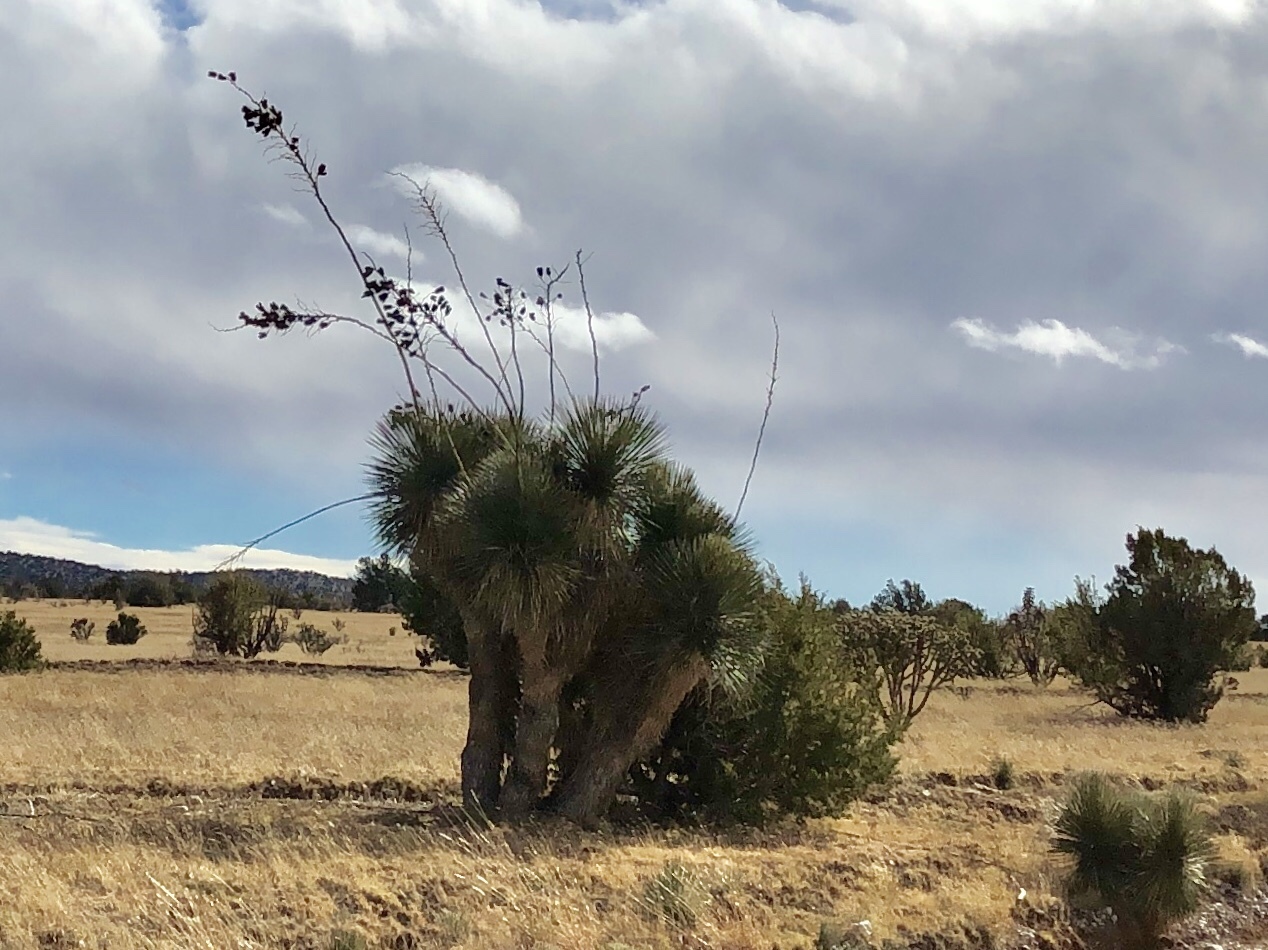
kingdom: Plantae
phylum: Tracheophyta
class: Liliopsida
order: Asparagales
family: Asparagaceae
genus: Yucca
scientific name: Yucca elata
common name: Palmella
